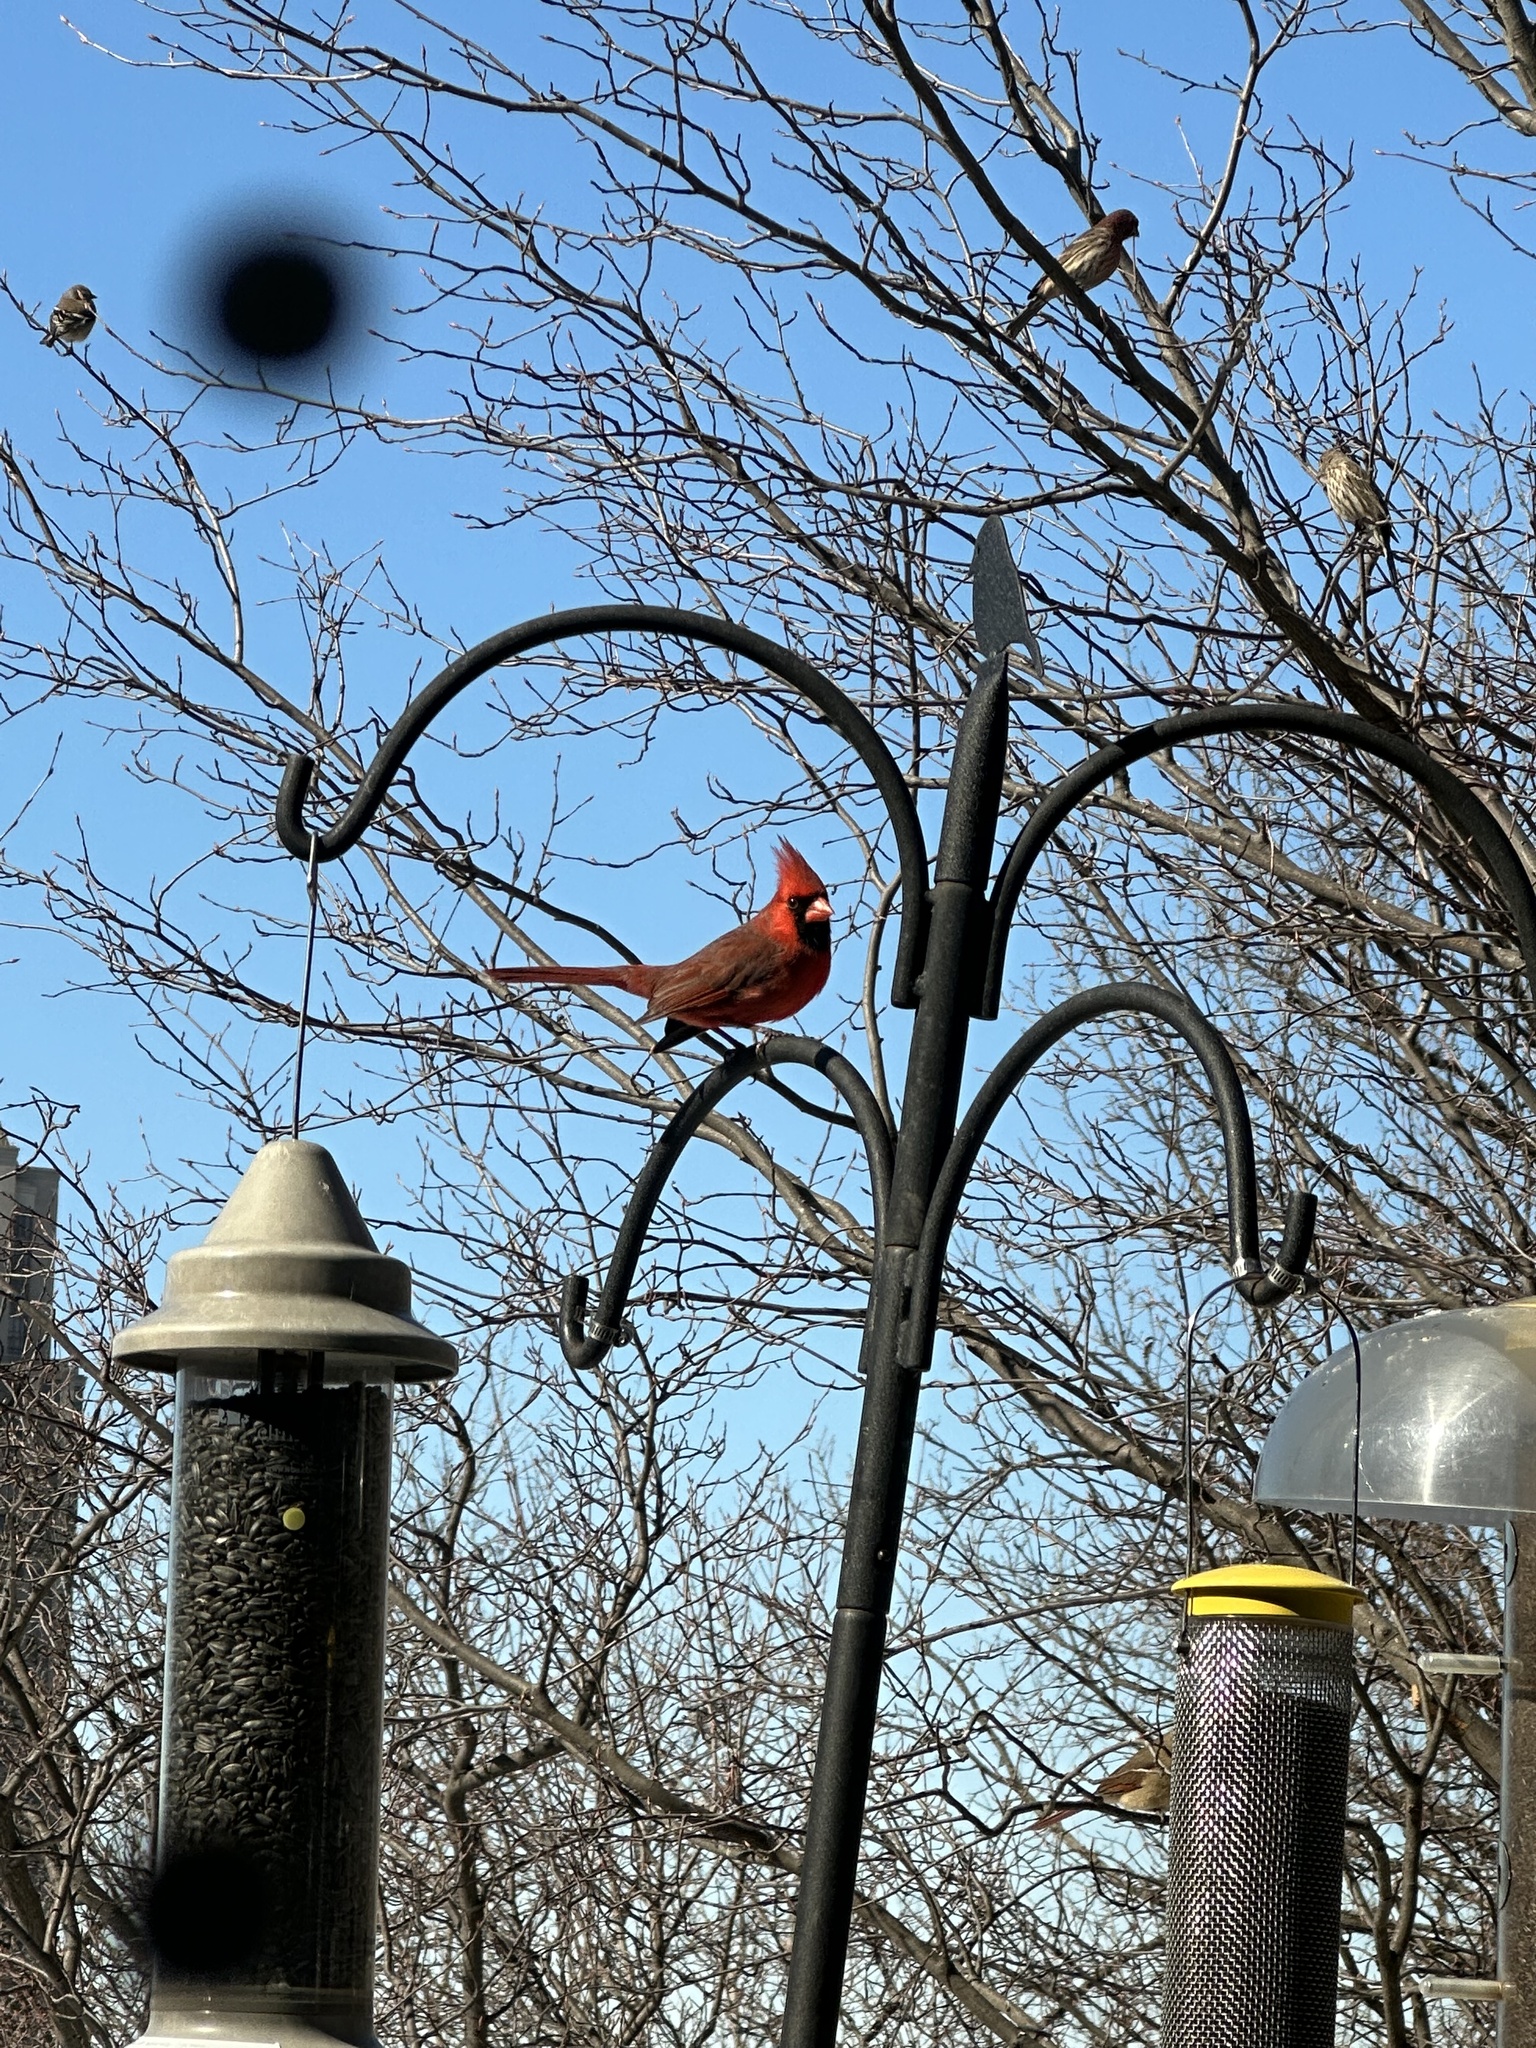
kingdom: Animalia
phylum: Chordata
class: Aves
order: Passeriformes
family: Cardinalidae
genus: Cardinalis
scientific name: Cardinalis cardinalis
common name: Northern cardinal
